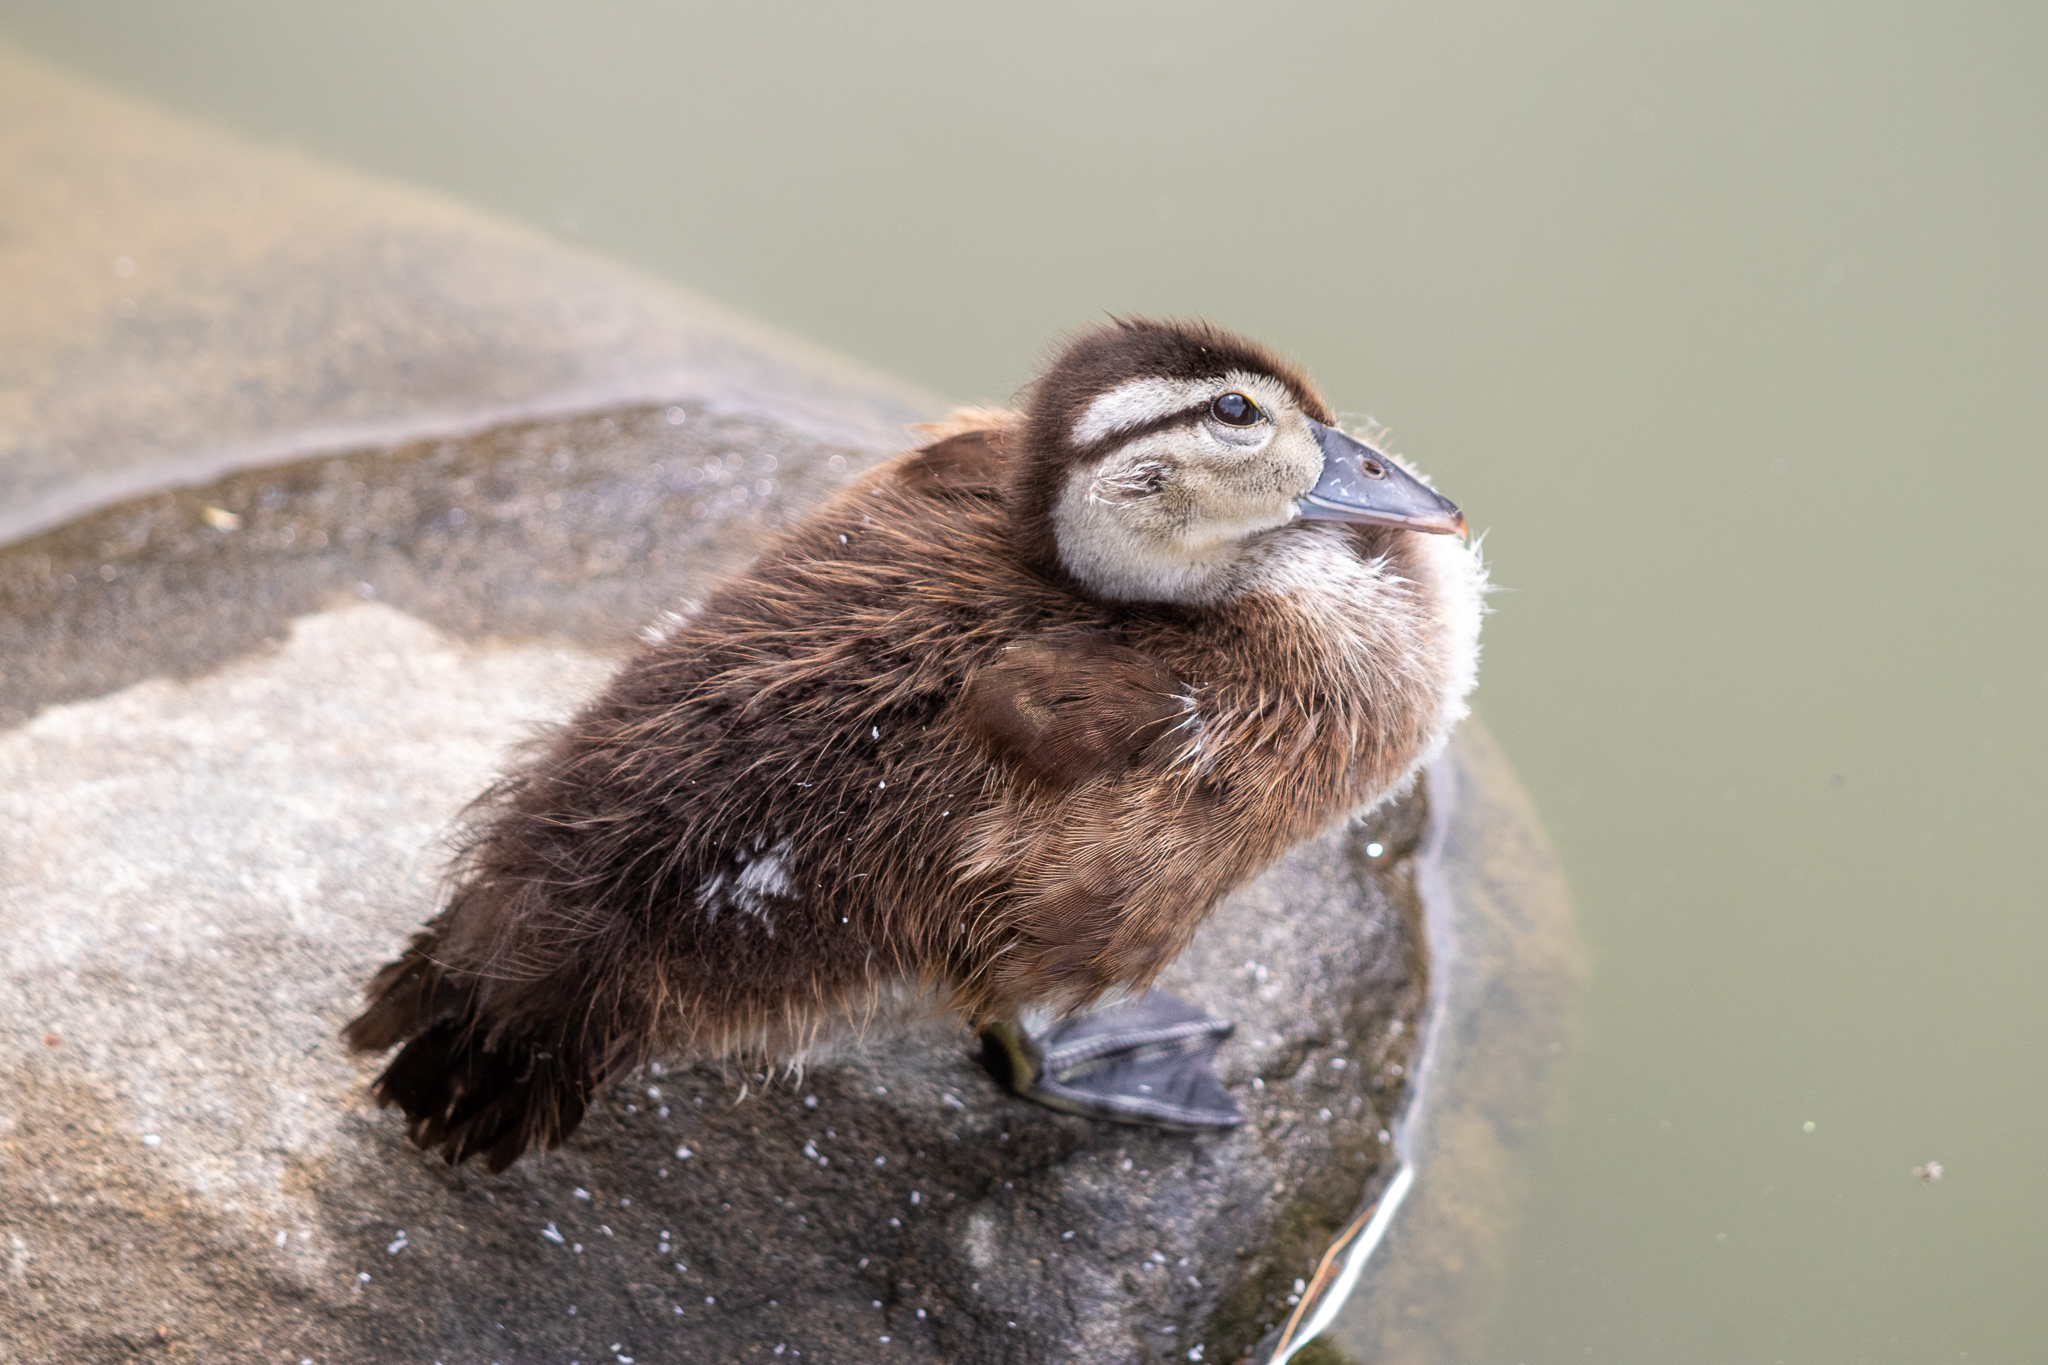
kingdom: Animalia
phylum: Chordata
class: Aves
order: Anseriformes
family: Anatidae
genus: Aix
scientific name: Aix sponsa
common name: Wood duck
